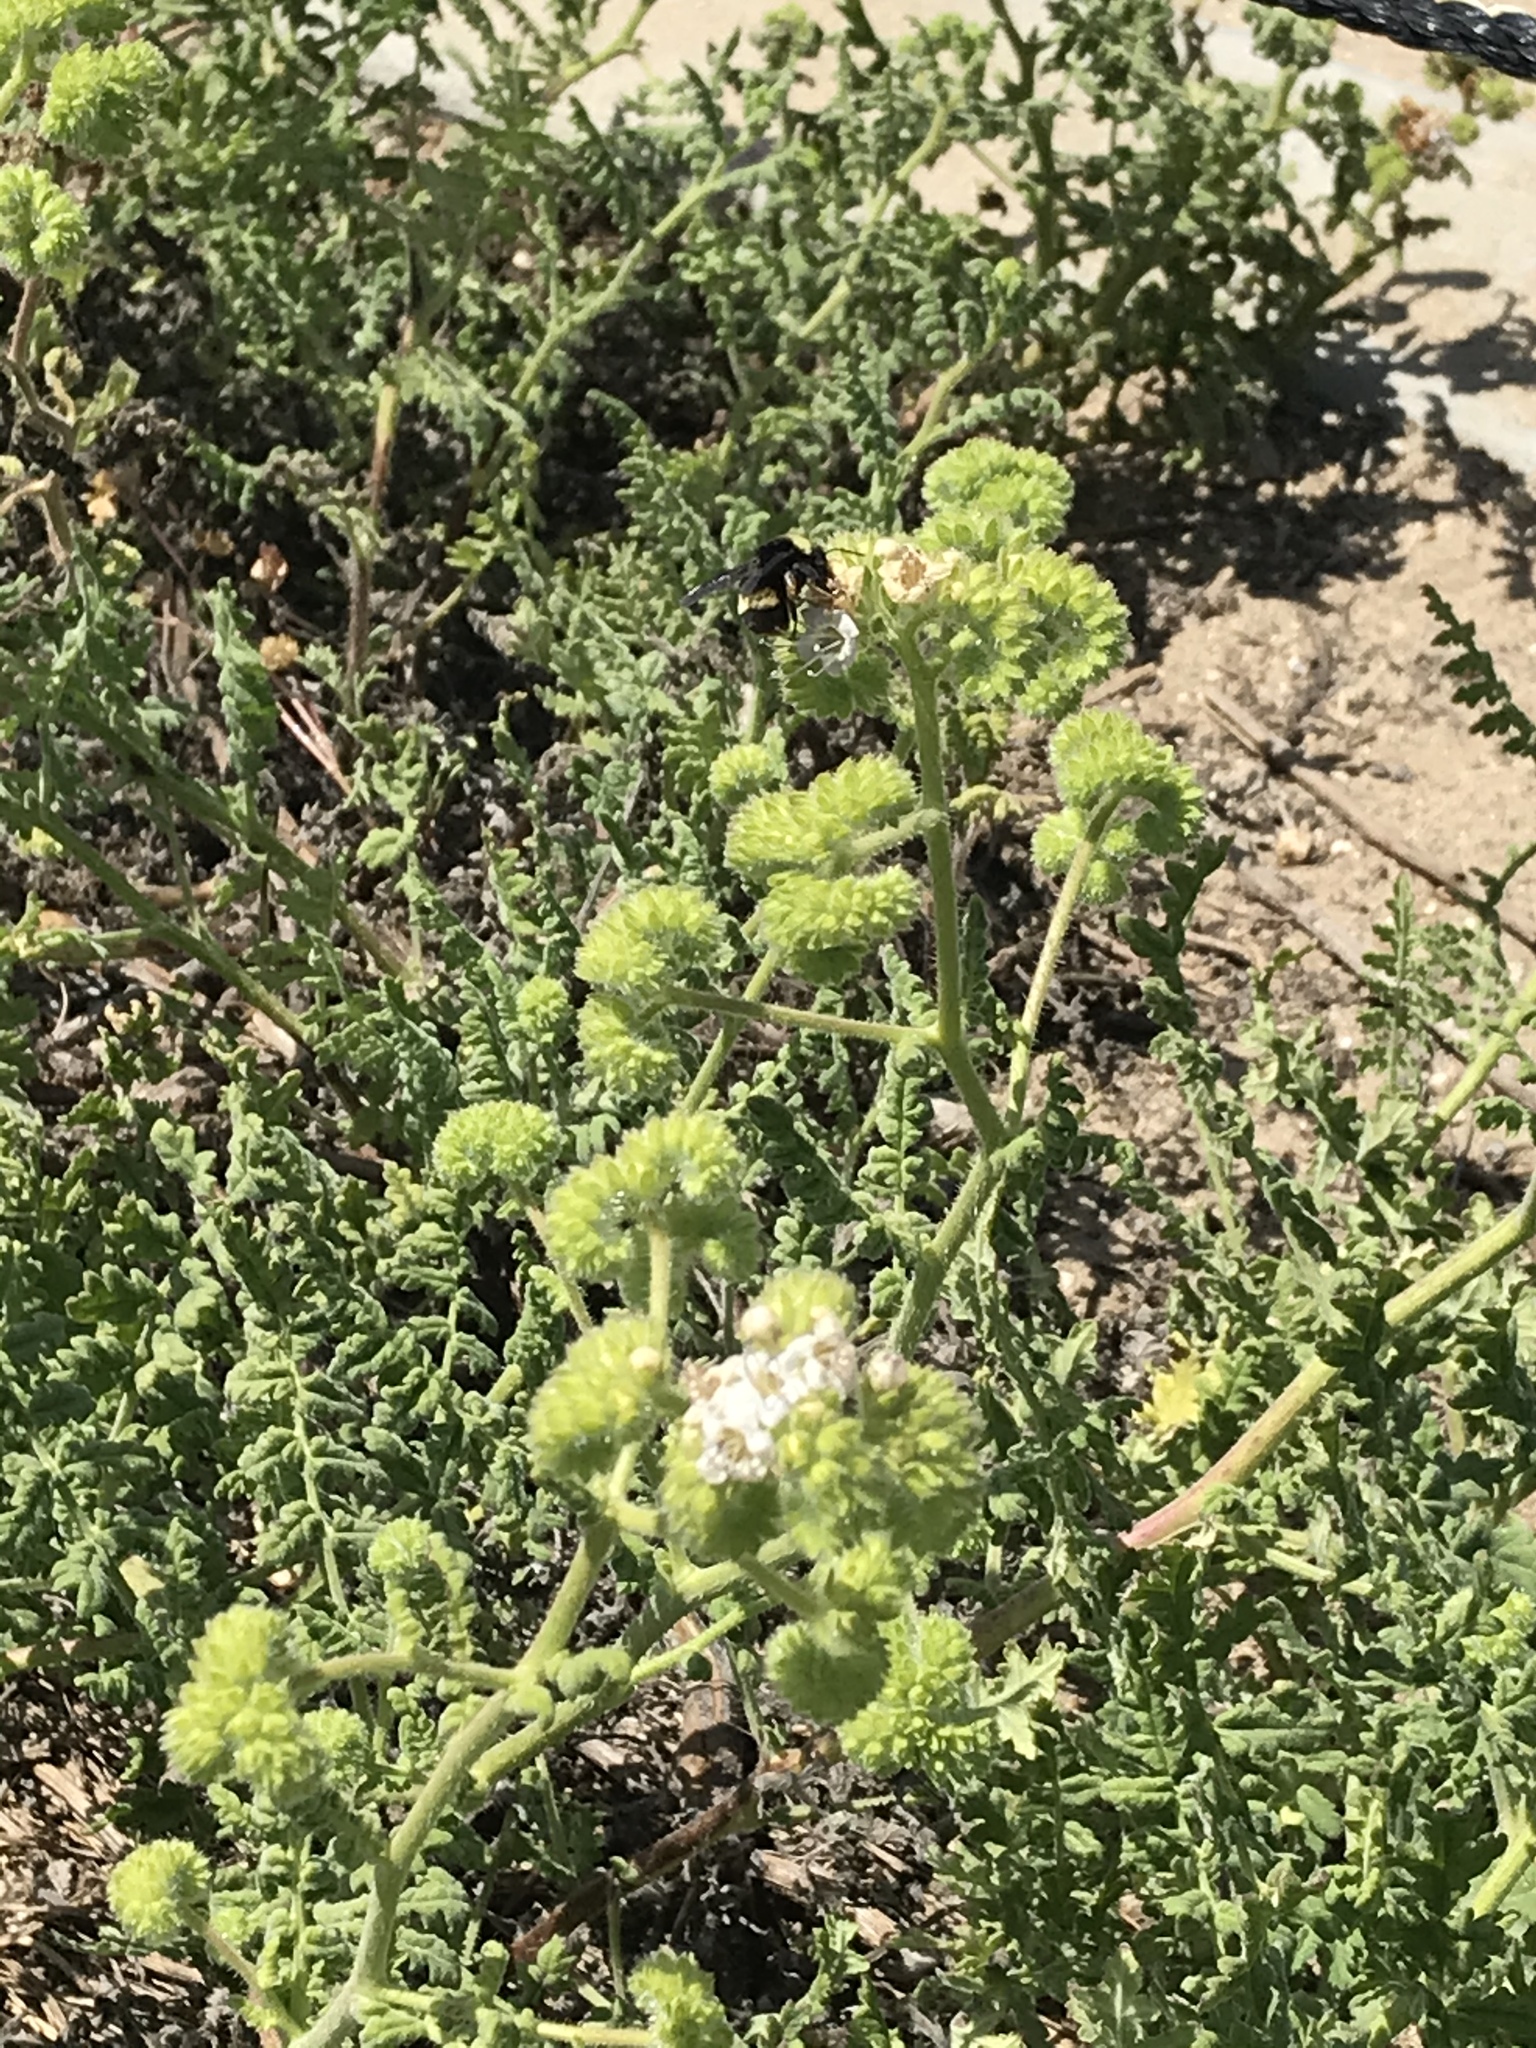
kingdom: Animalia
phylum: Arthropoda
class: Insecta
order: Hymenoptera
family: Apidae
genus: Bombus
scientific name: Bombus crotchii
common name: Crotch bumble bee
